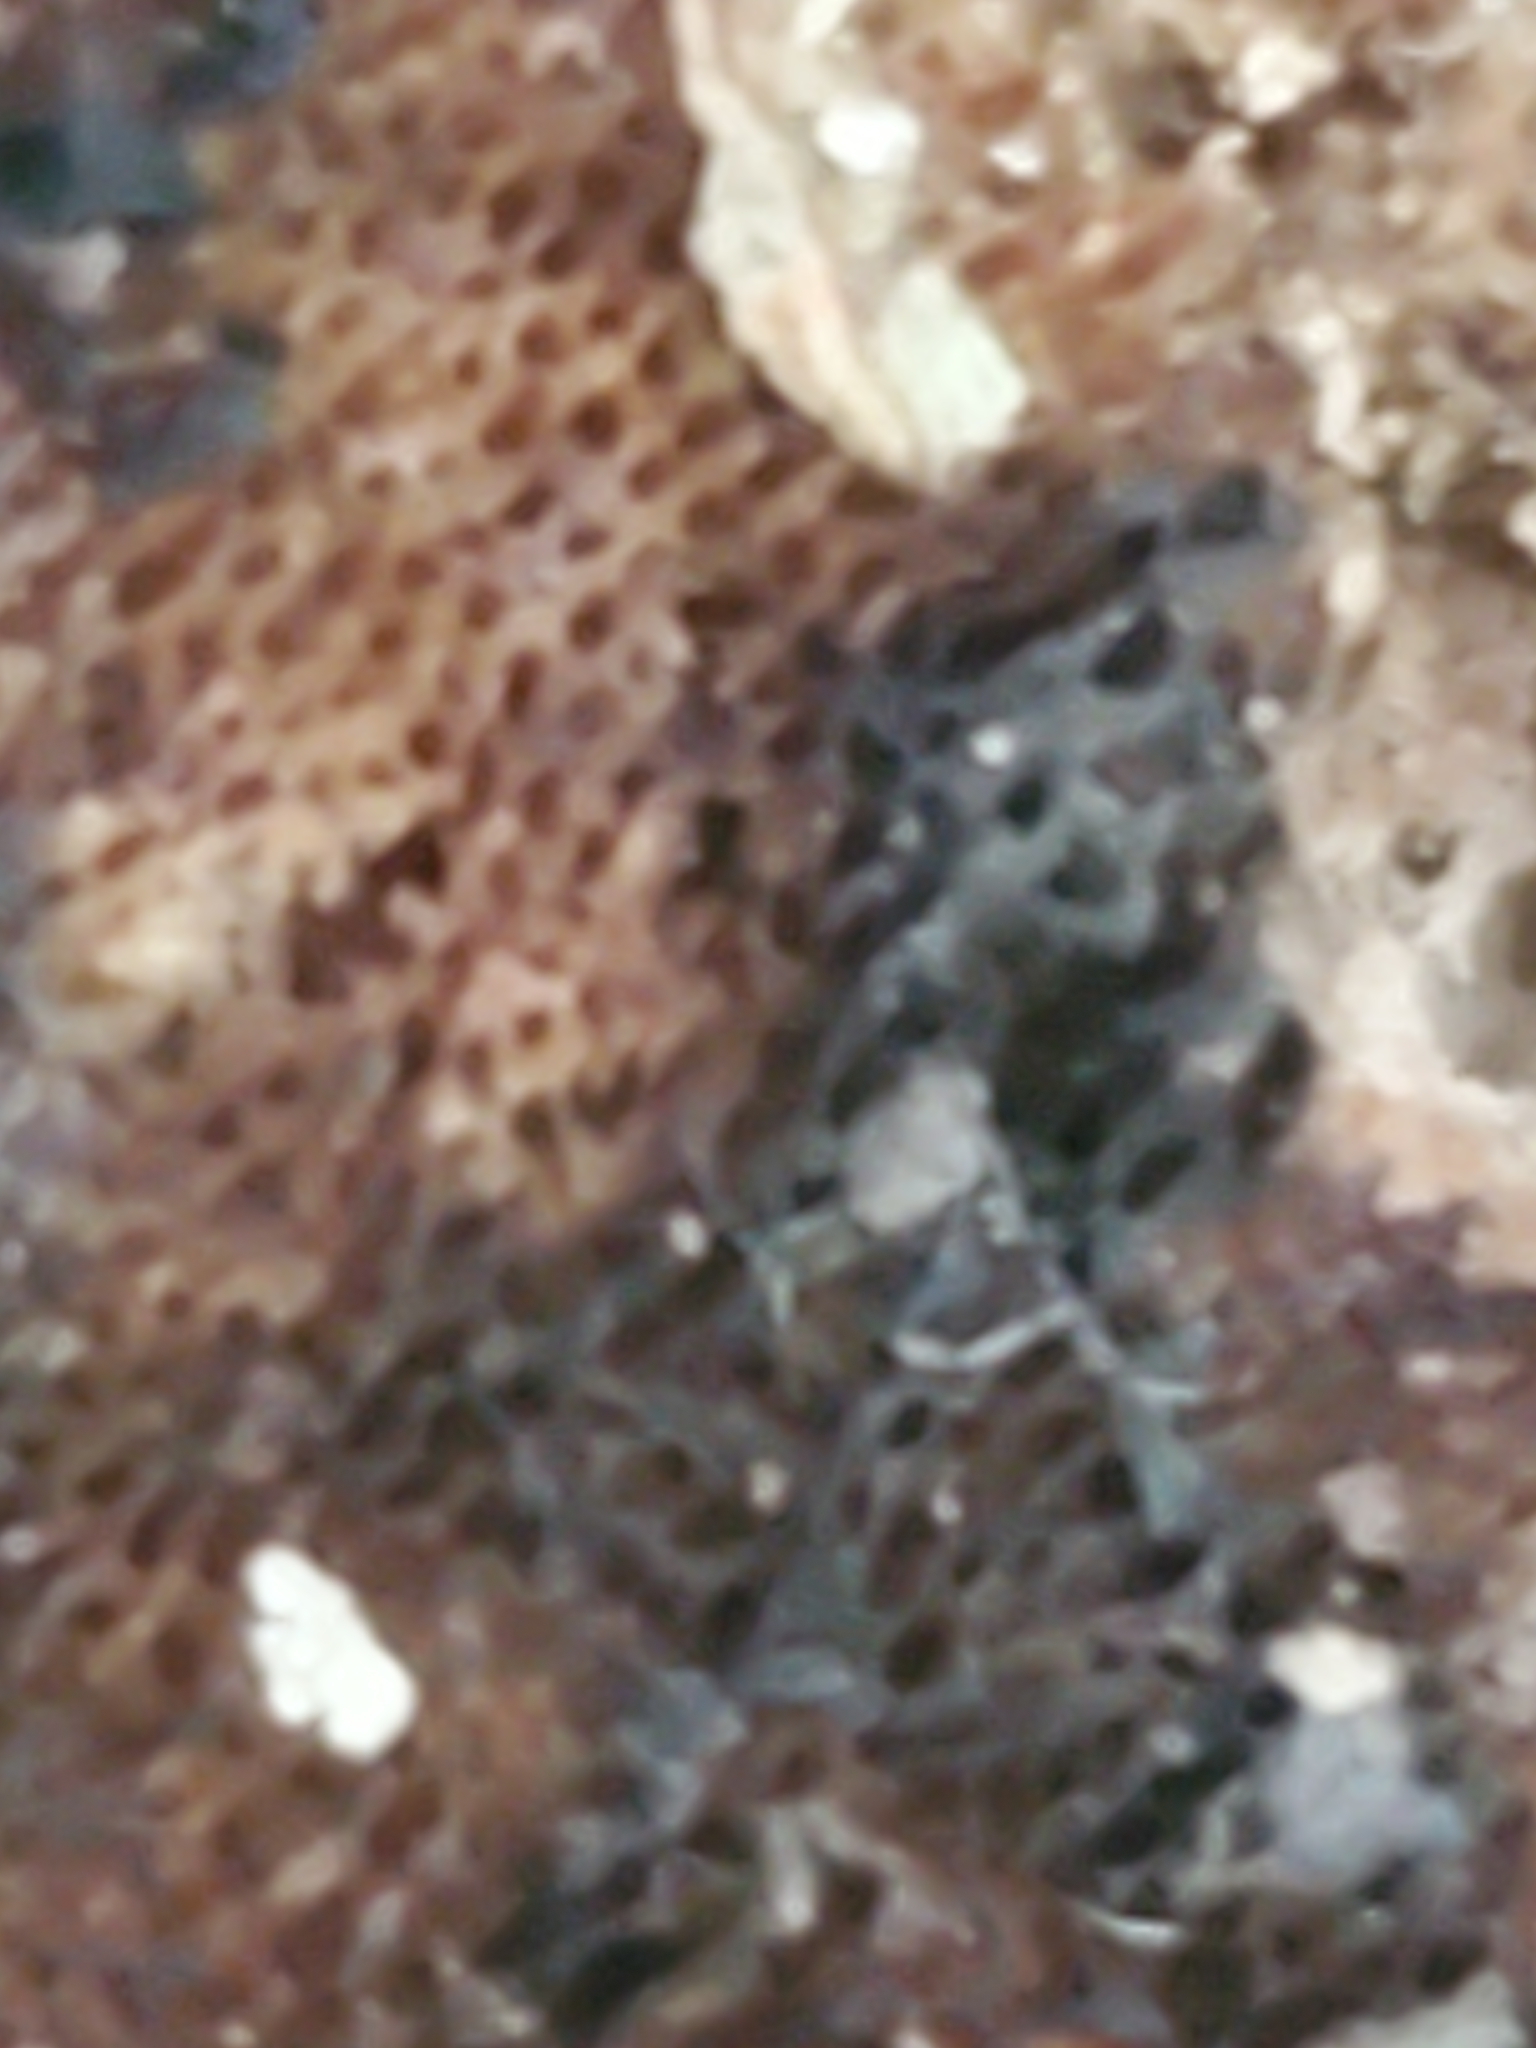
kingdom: Fungi
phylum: Basidiomycota
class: Agaricomycetes
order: Polyporales
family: Fomitopsidaceae
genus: Fomitopsis
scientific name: Fomitopsis betulina
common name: Birch polypore
